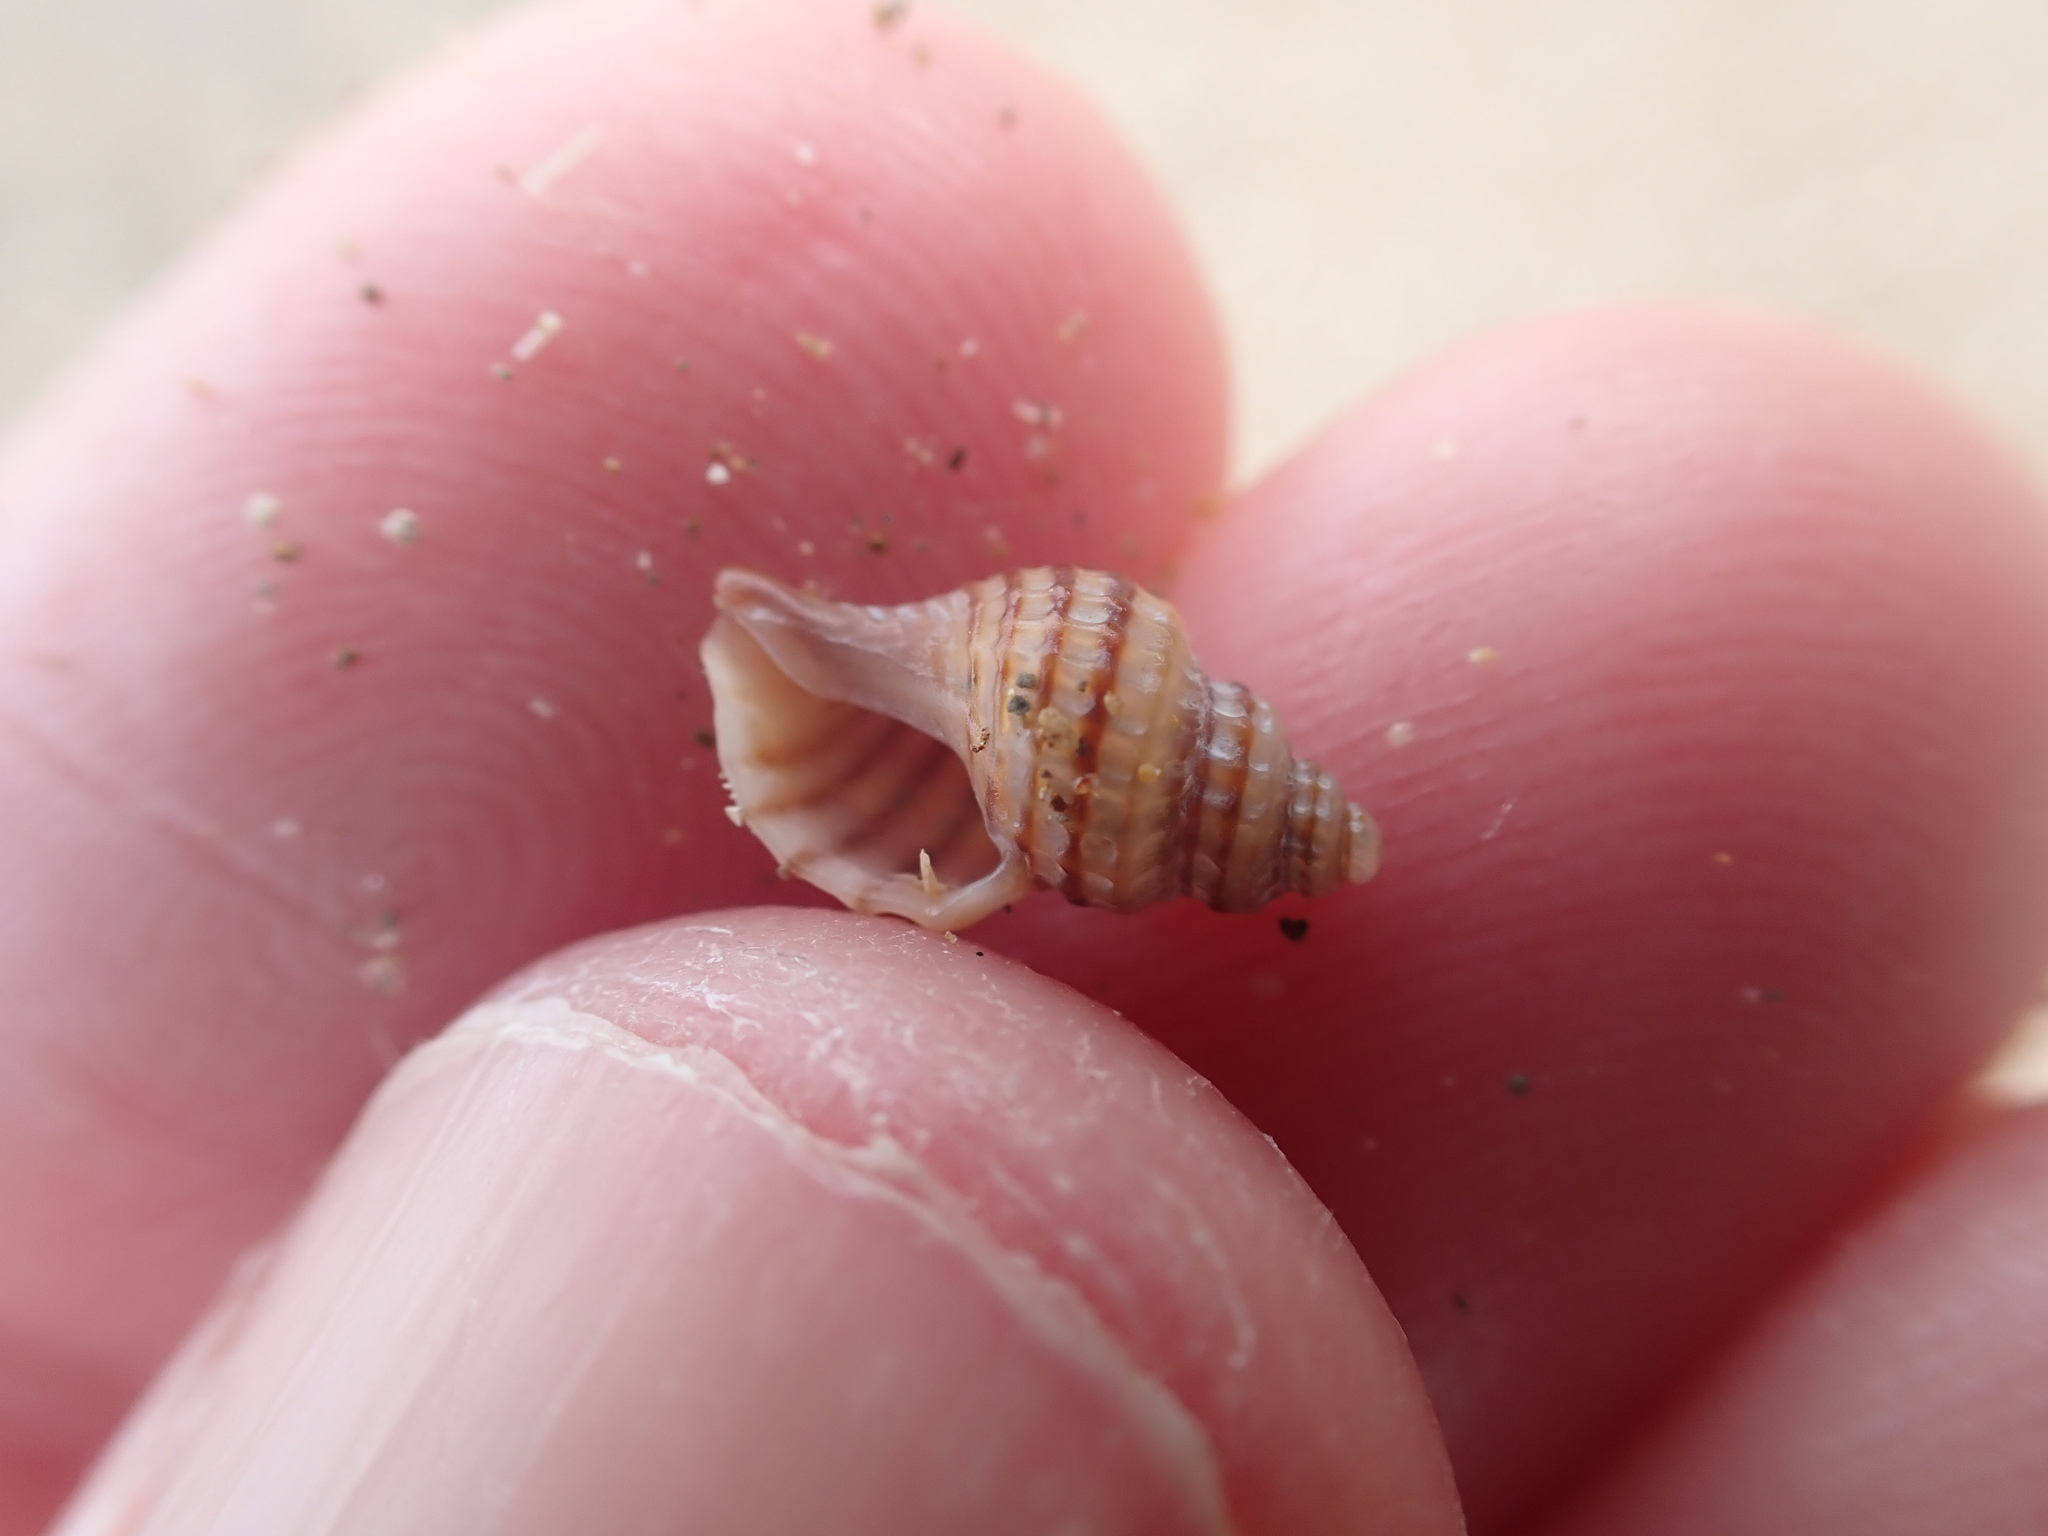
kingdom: Animalia
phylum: Mollusca
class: Gastropoda
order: Neogastropoda
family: Muricidae
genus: Xymene
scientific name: Xymene plebeius
